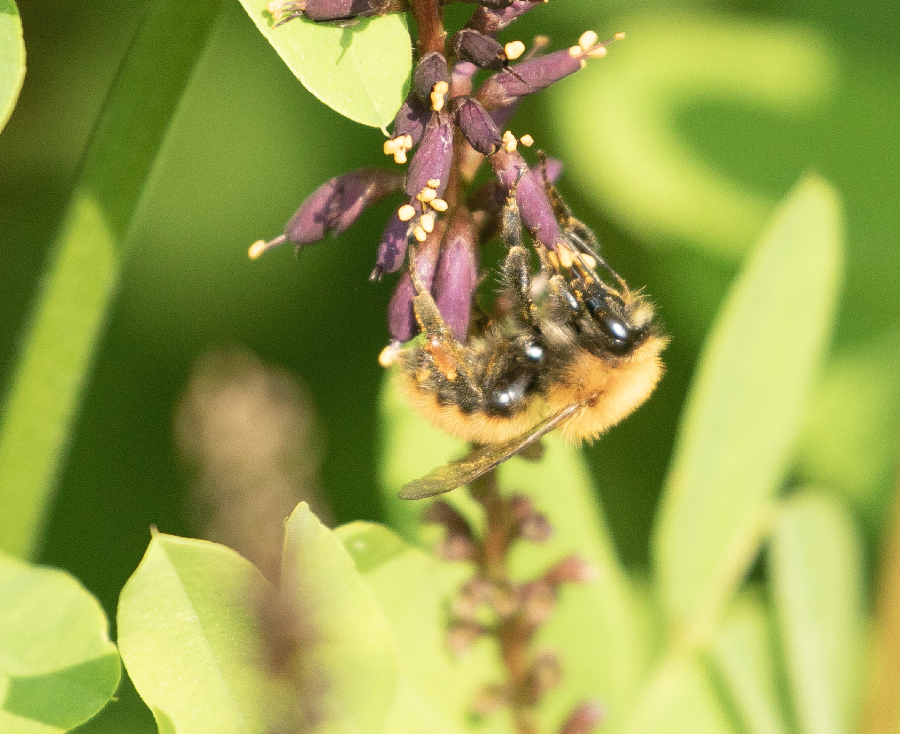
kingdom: Animalia
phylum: Arthropoda
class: Insecta
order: Hymenoptera
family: Apidae
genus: Bombus
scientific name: Bombus pascuorum
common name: Common carder bee
